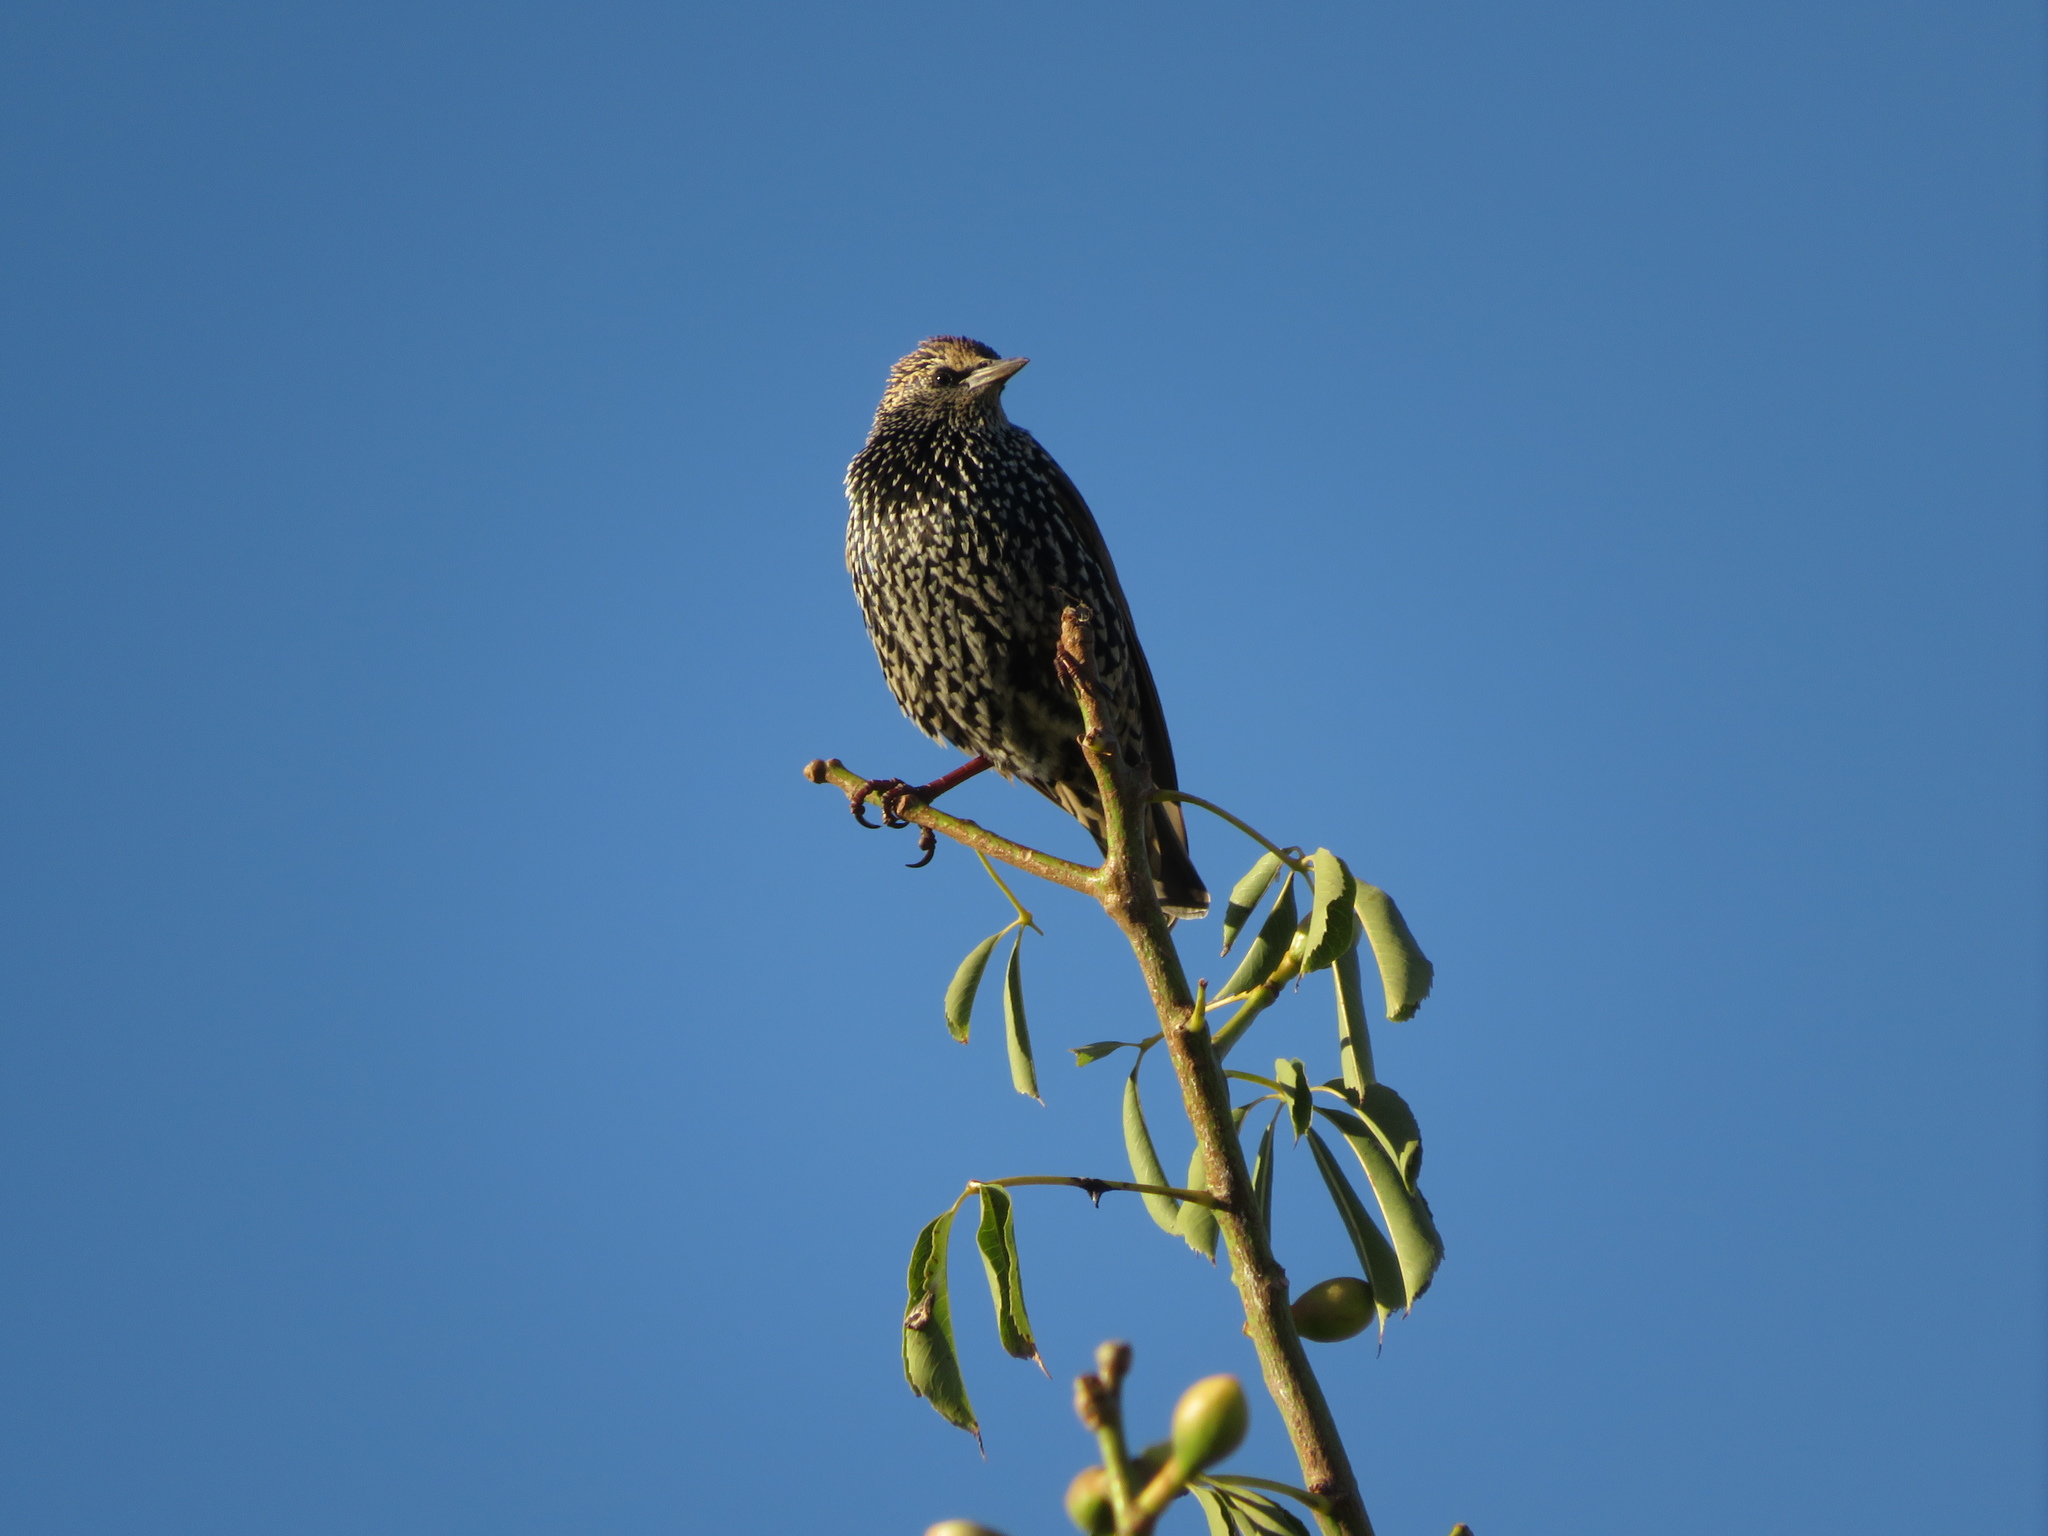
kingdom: Animalia
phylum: Chordata
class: Aves
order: Passeriformes
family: Sturnidae
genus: Sturnus
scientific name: Sturnus vulgaris
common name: Common starling
